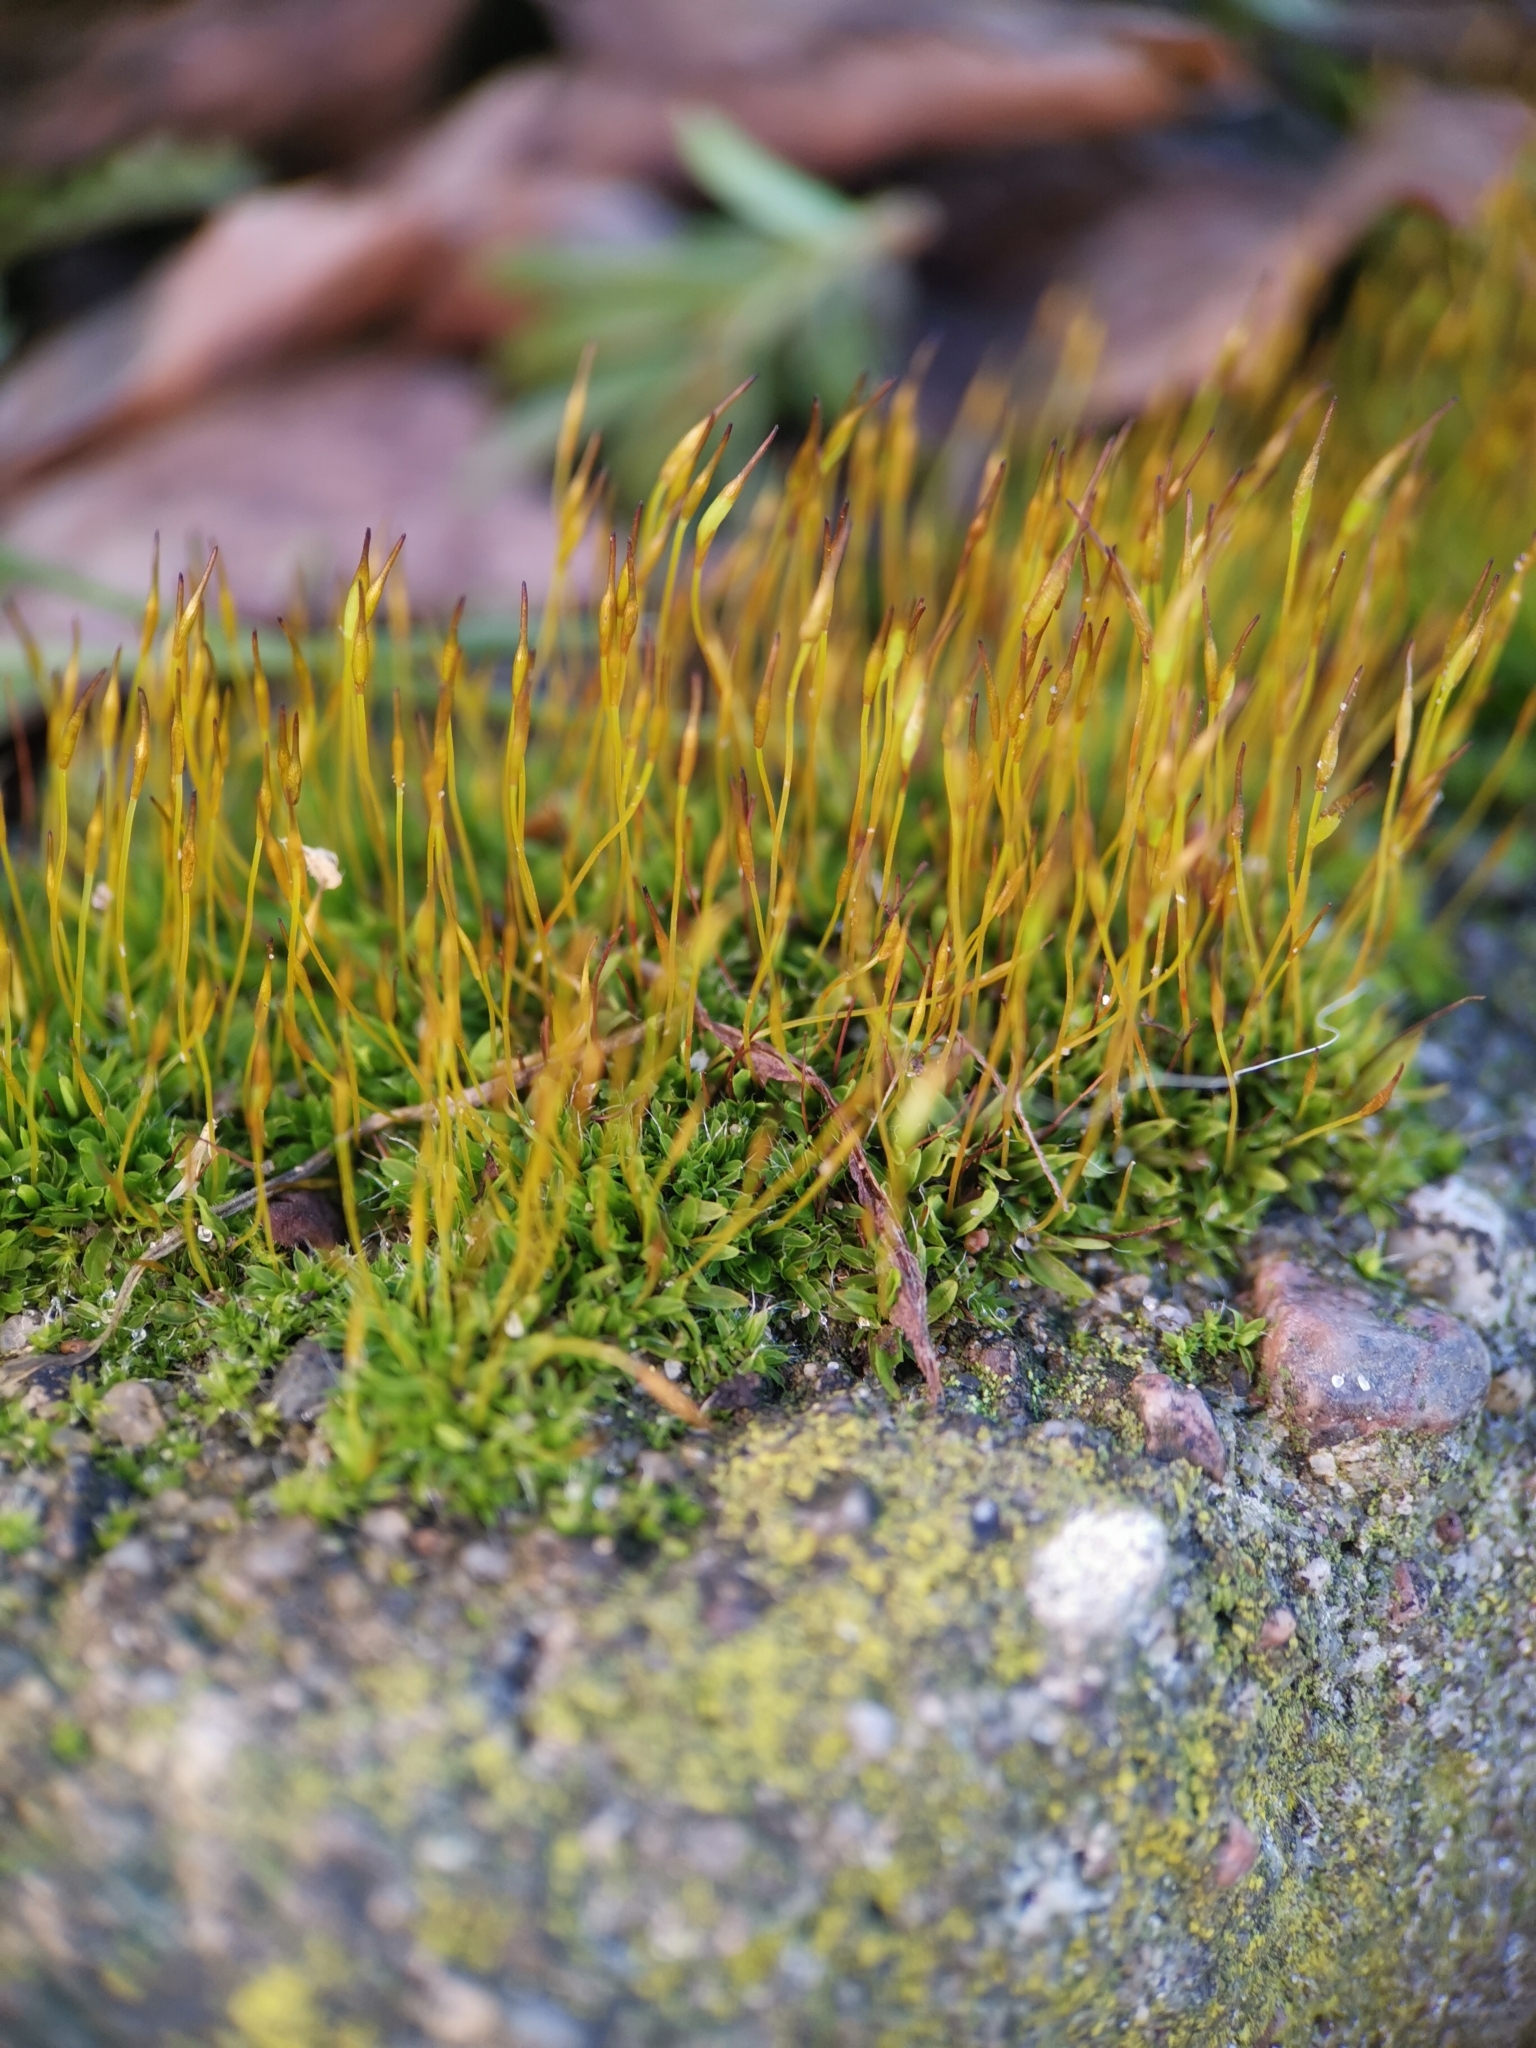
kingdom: Plantae
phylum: Bryophyta
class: Bryopsida
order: Pottiales
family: Pottiaceae
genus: Tortula
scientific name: Tortula muralis
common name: Wall screw-moss
